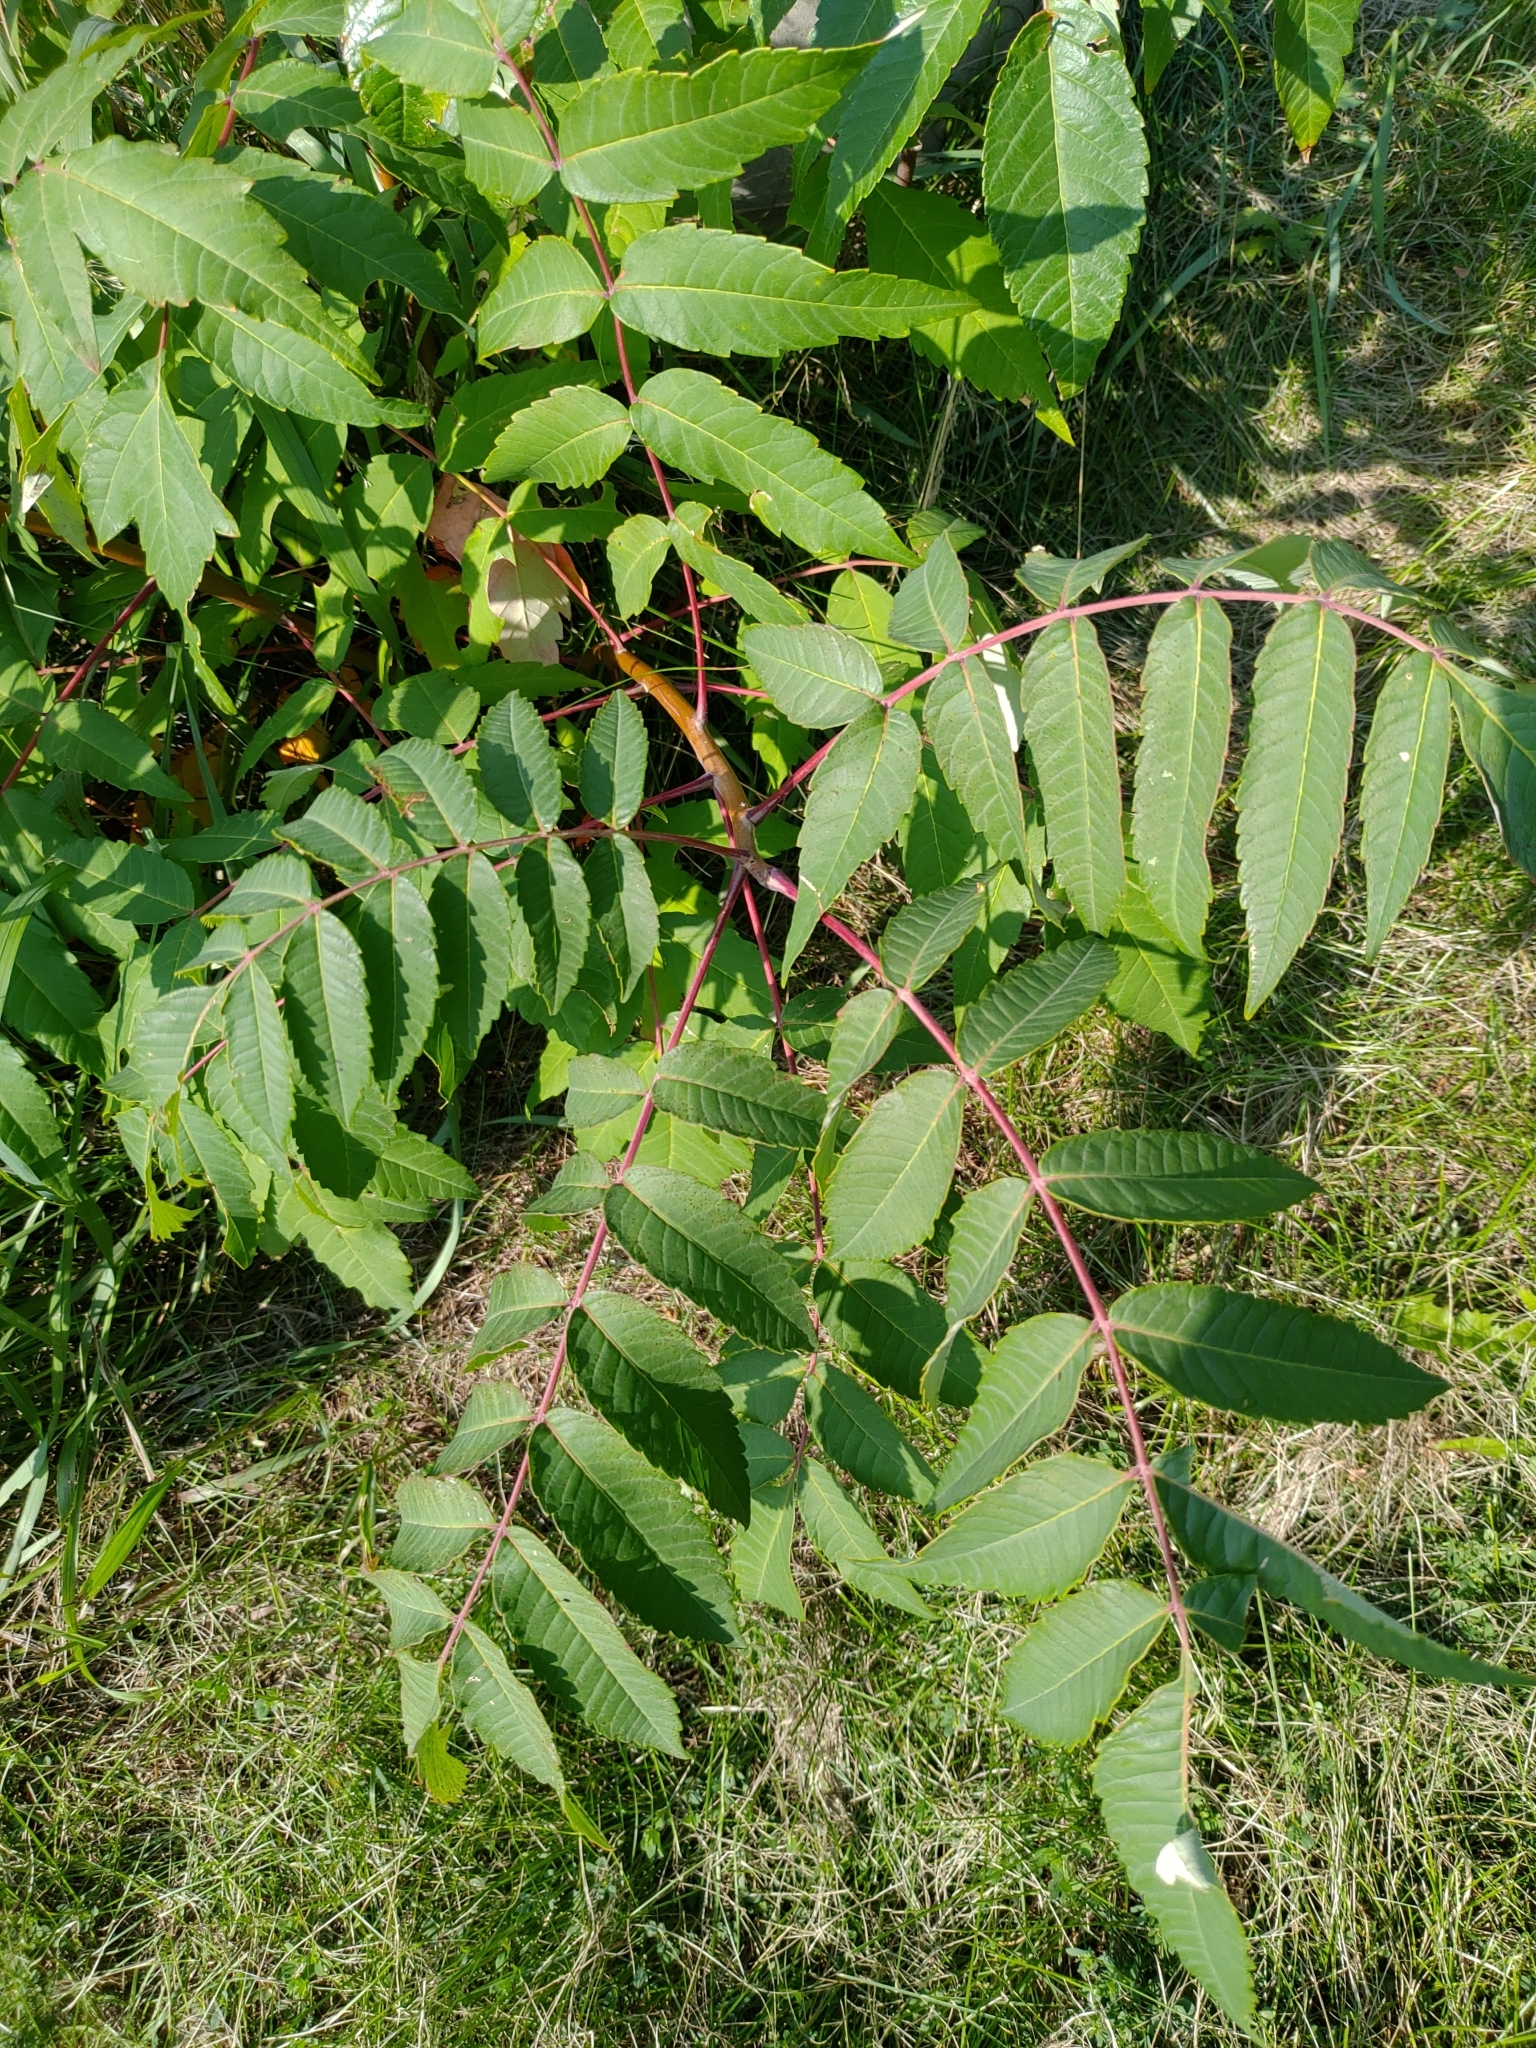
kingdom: Plantae
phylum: Tracheophyta
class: Magnoliopsida
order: Sapindales
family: Anacardiaceae
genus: Rhus
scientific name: Rhus glabra
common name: Scarlet sumac
